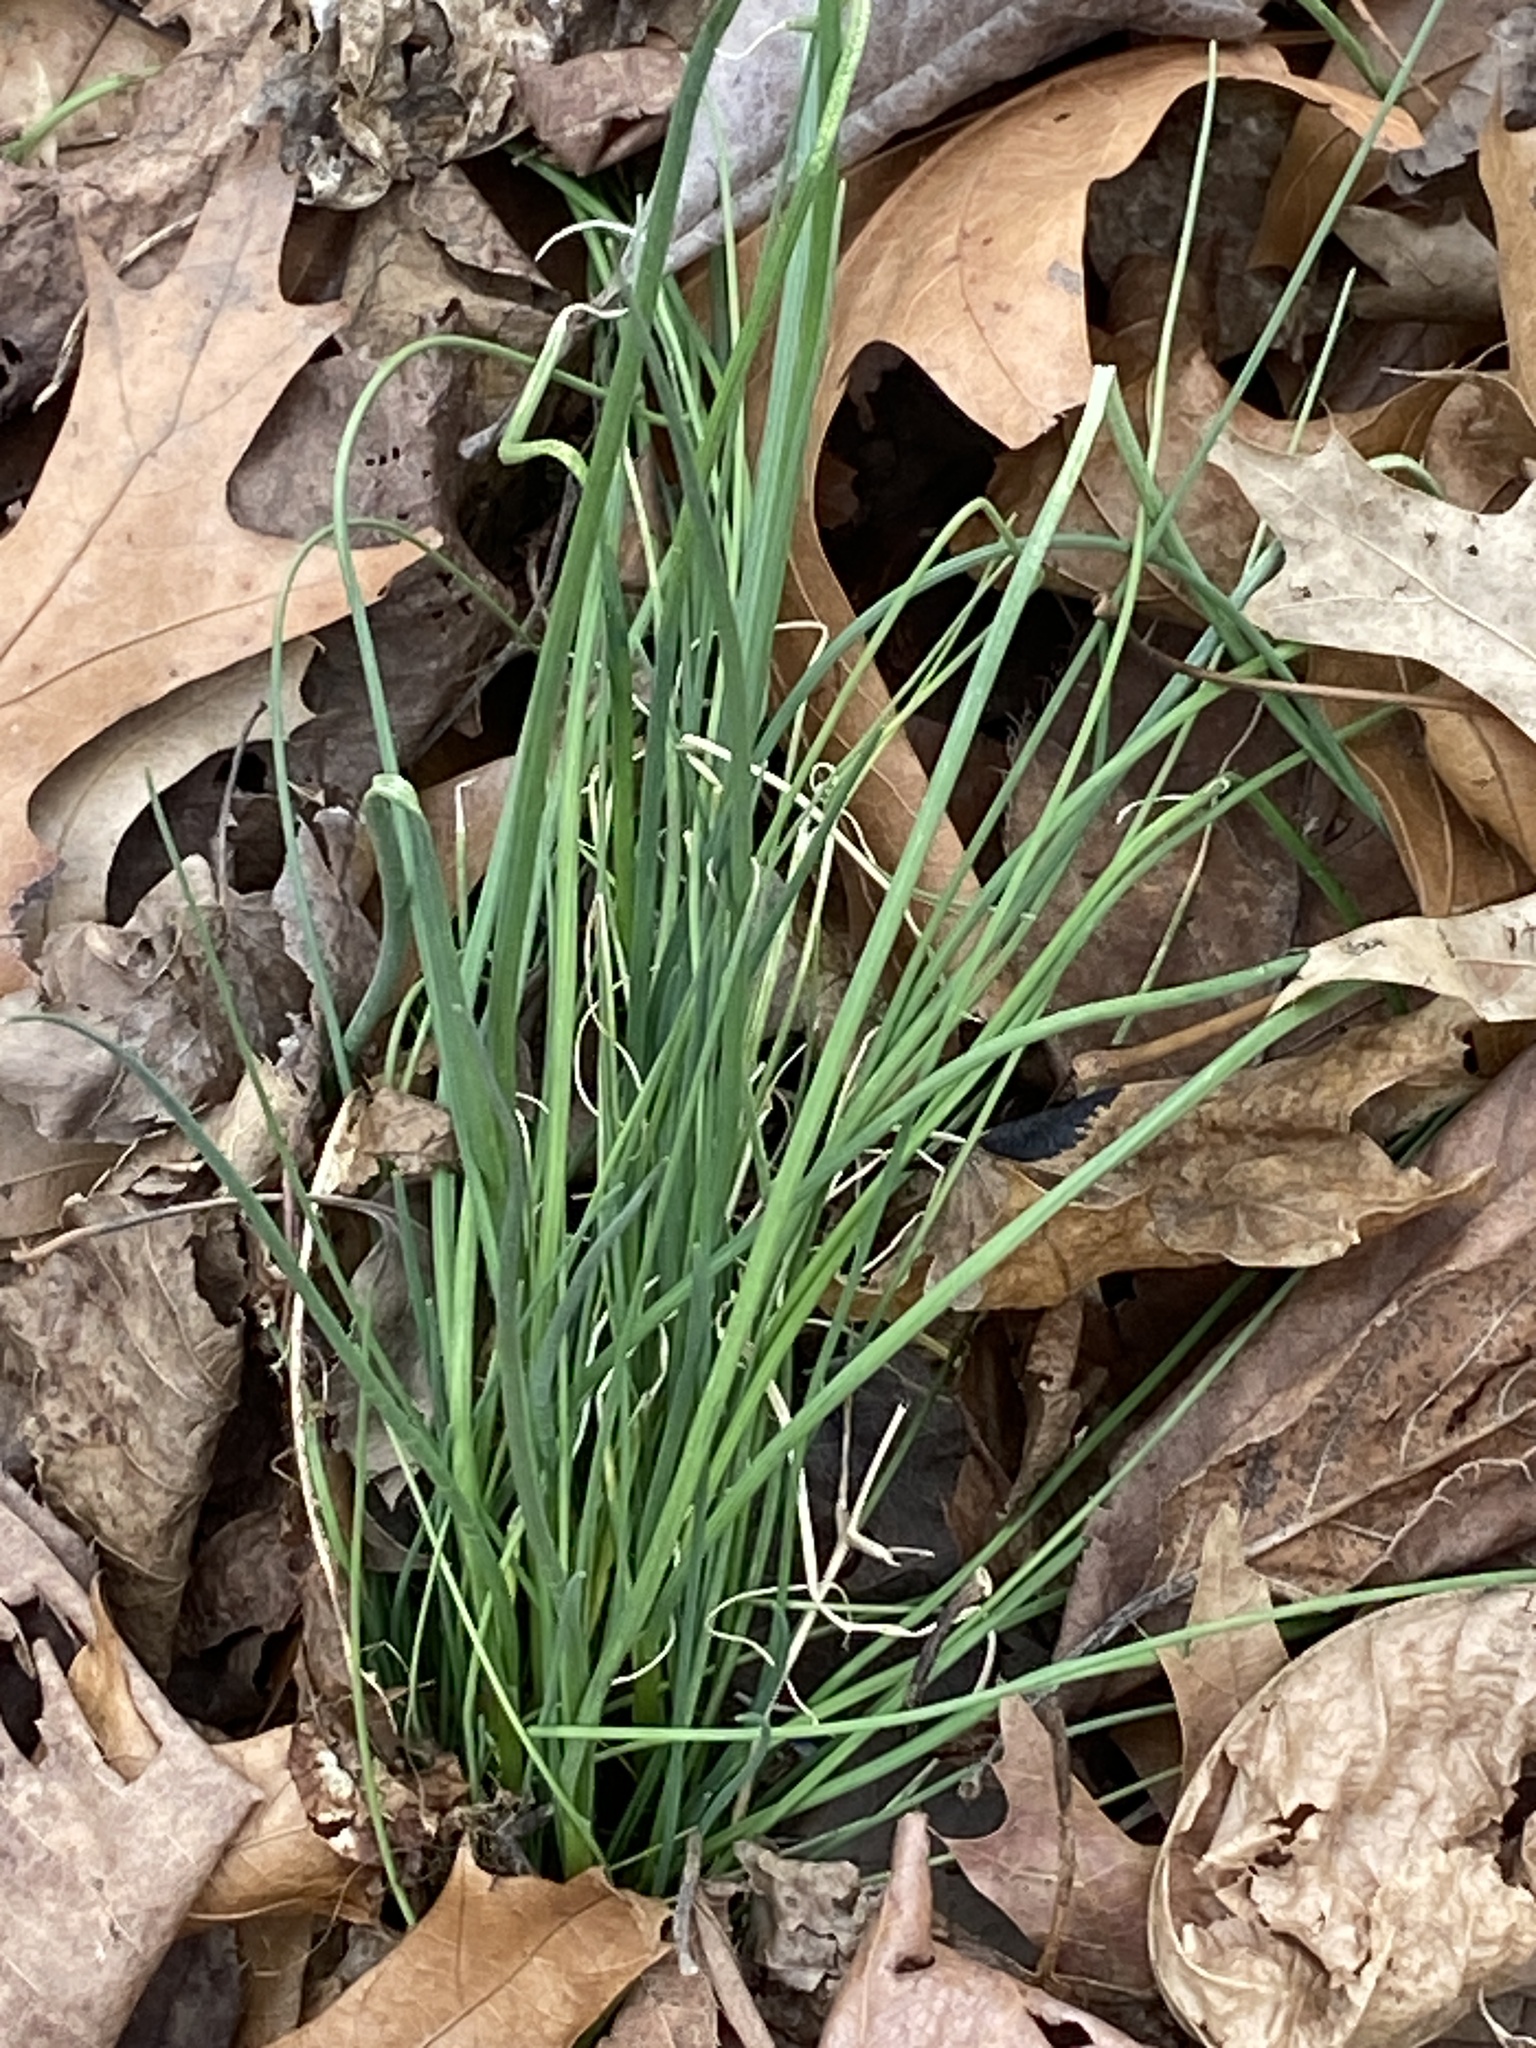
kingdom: Plantae
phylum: Tracheophyta
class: Liliopsida
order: Asparagales
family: Amaryllidaceae
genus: Allium
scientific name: Allium vineale
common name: Crow garlic
